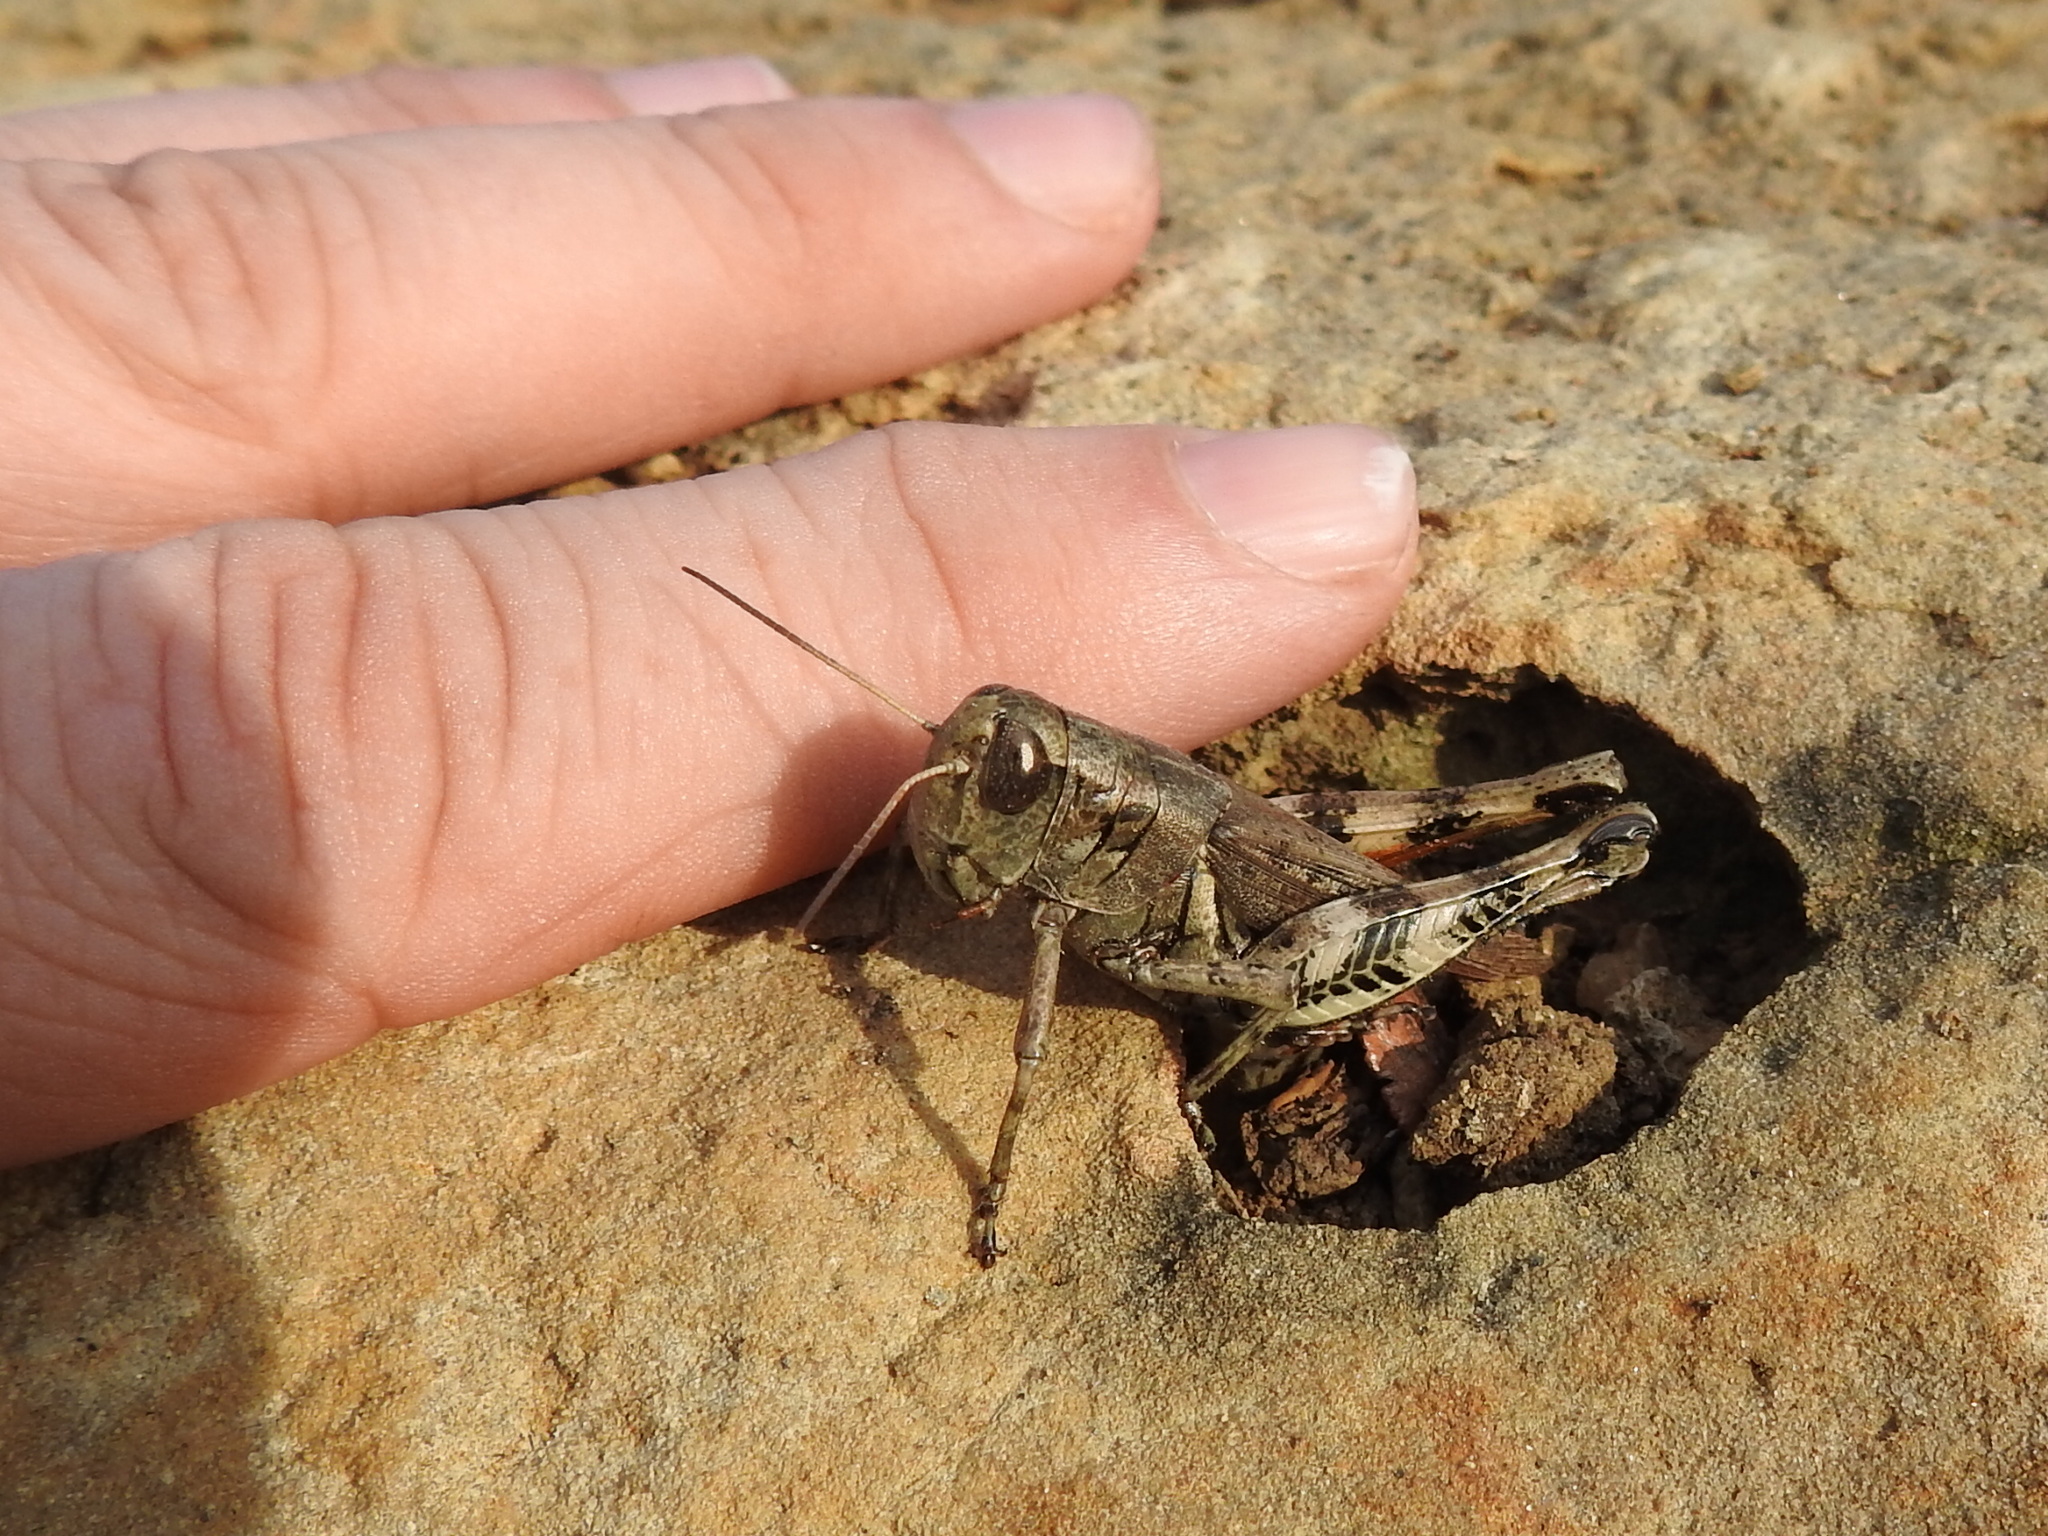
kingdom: Animalia
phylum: Arthropoda
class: Insecta
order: Orthoptera
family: Acrididae
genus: Melanoplus
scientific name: Melanoplus ponderosus
